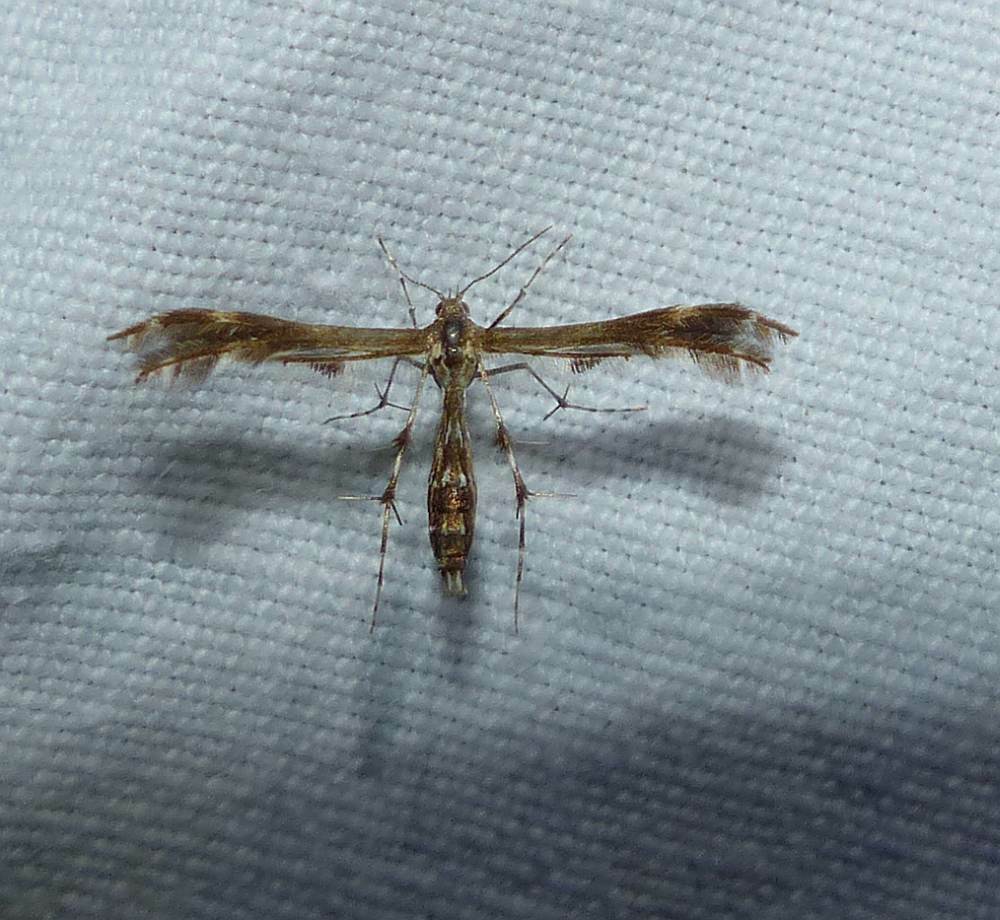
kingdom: Animalia
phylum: Arthropoda
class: Insecta
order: Lepidoptera
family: Pterophoridae
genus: Dejongia
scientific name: Dejongia lobidactylus
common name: Lobed plume moth
